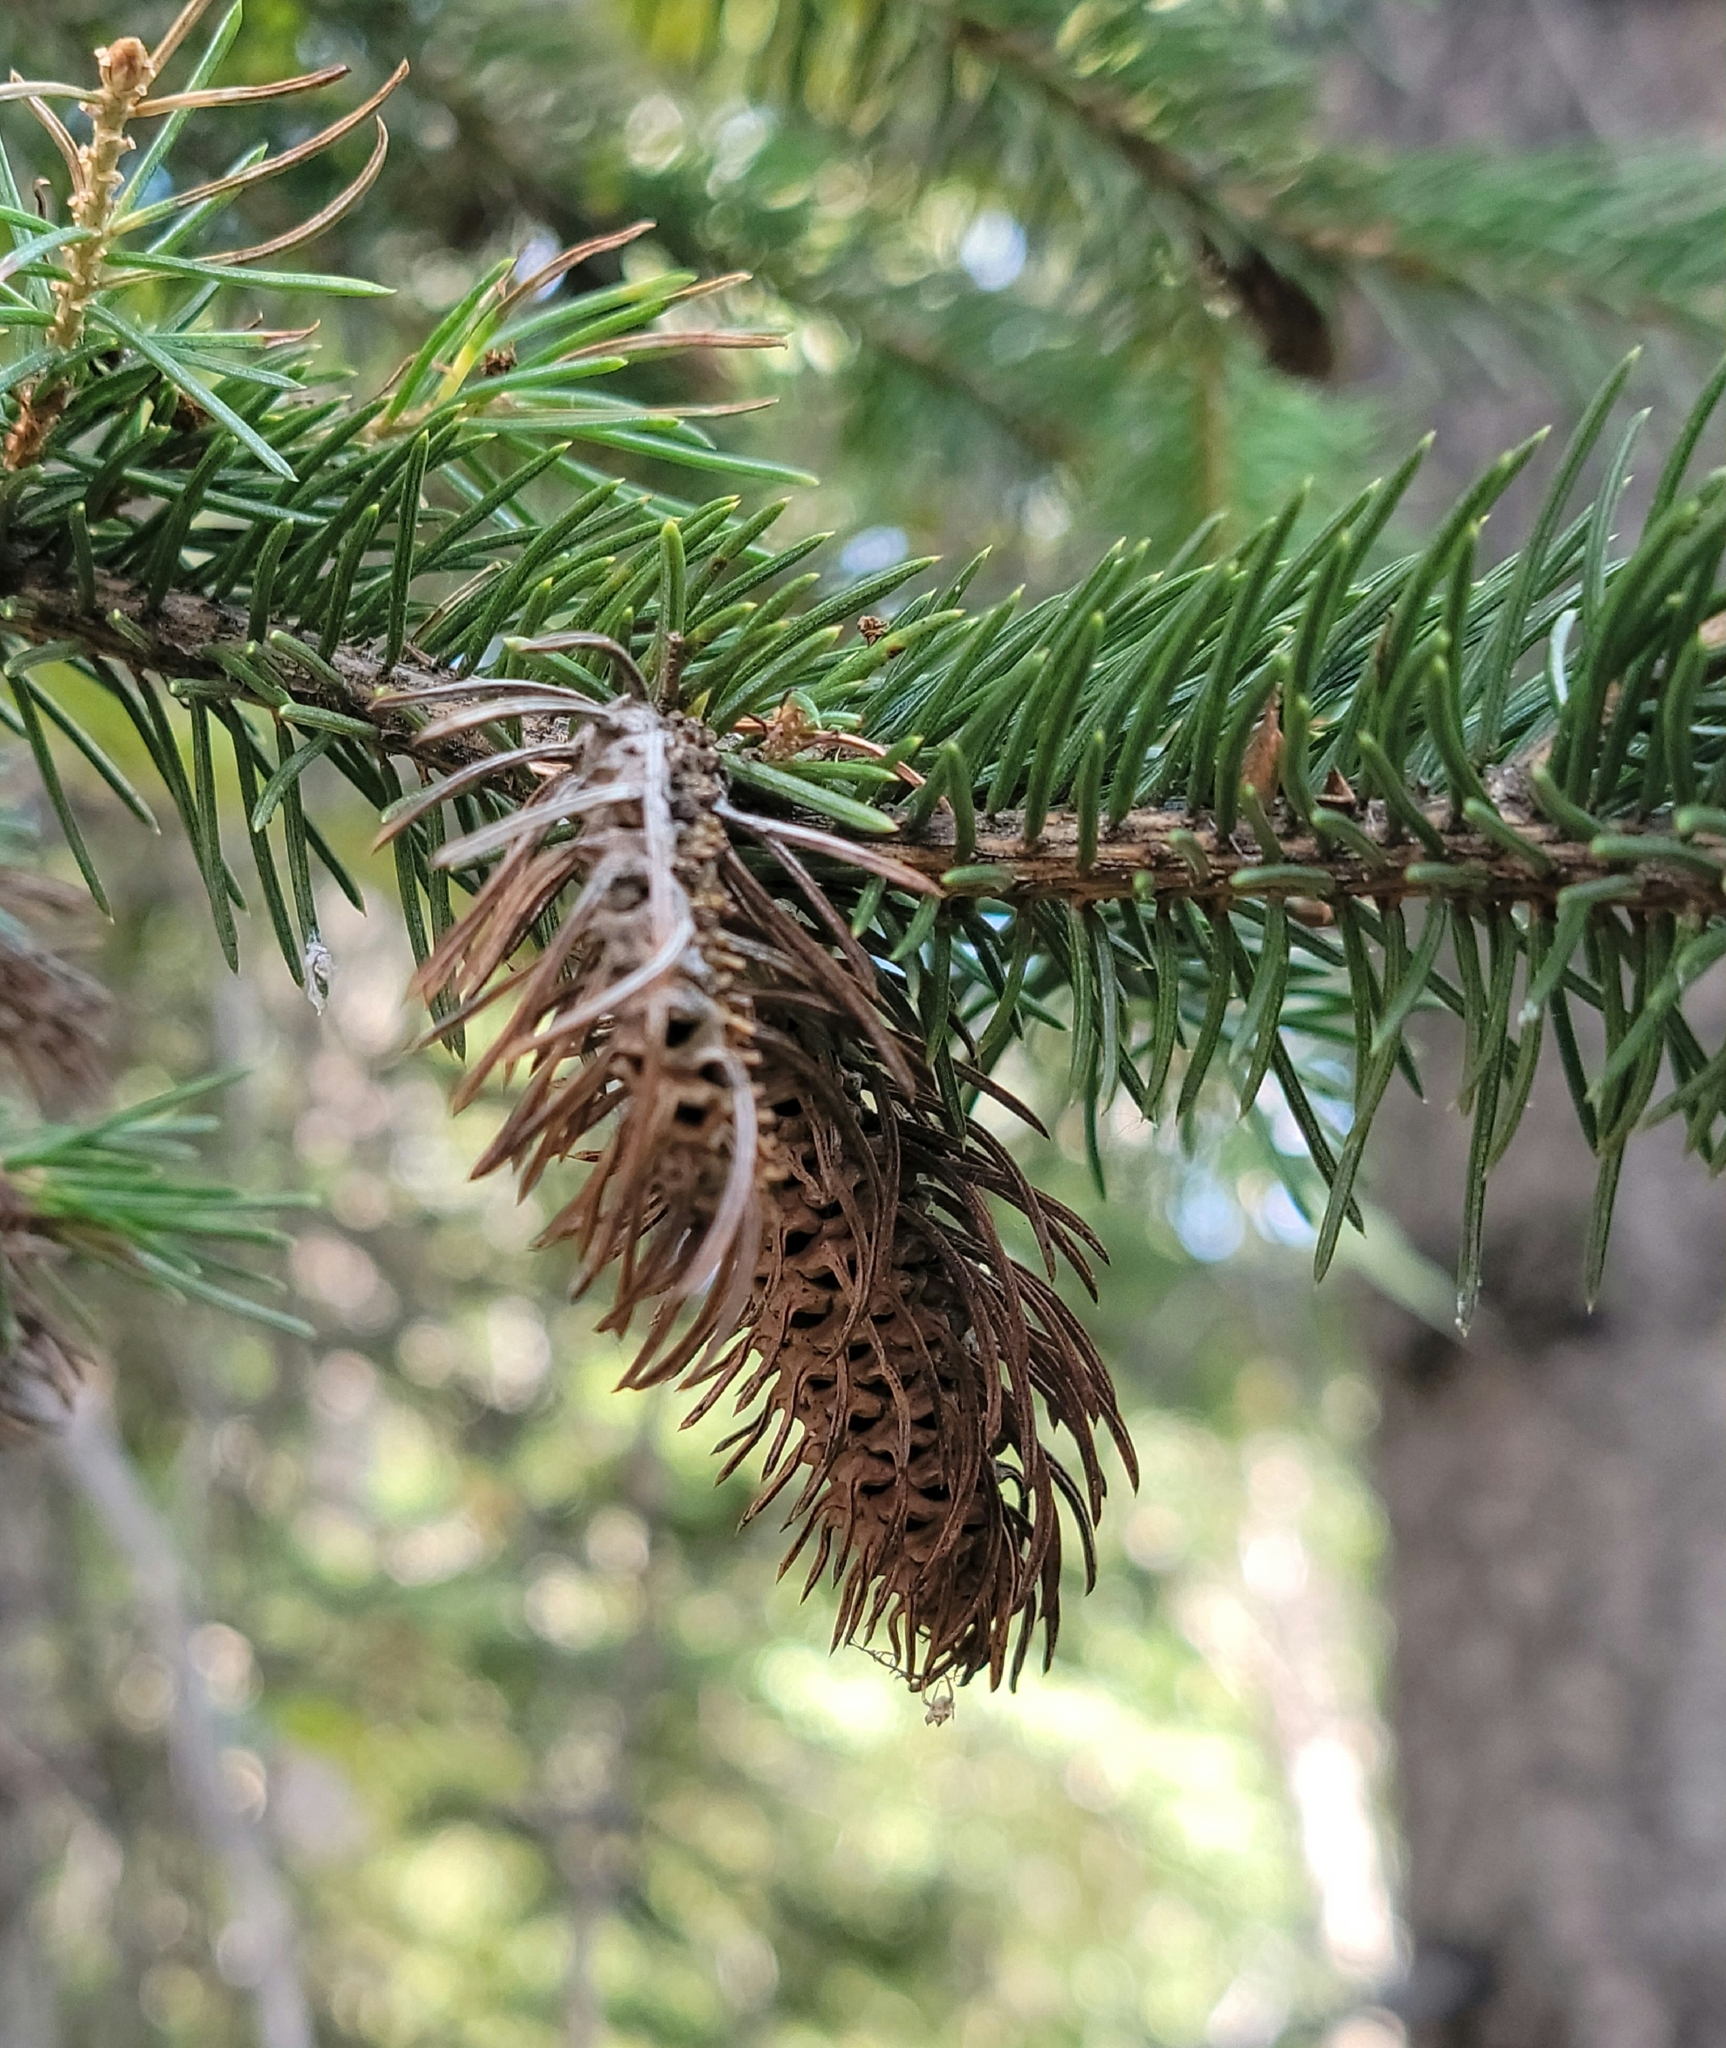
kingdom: Animalia
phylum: Arthropoda
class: Insecta
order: Hemiptera
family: Adelgidae
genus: Adelges
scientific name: Adelges cooleyi
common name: Cooley spruce gall adelgid
